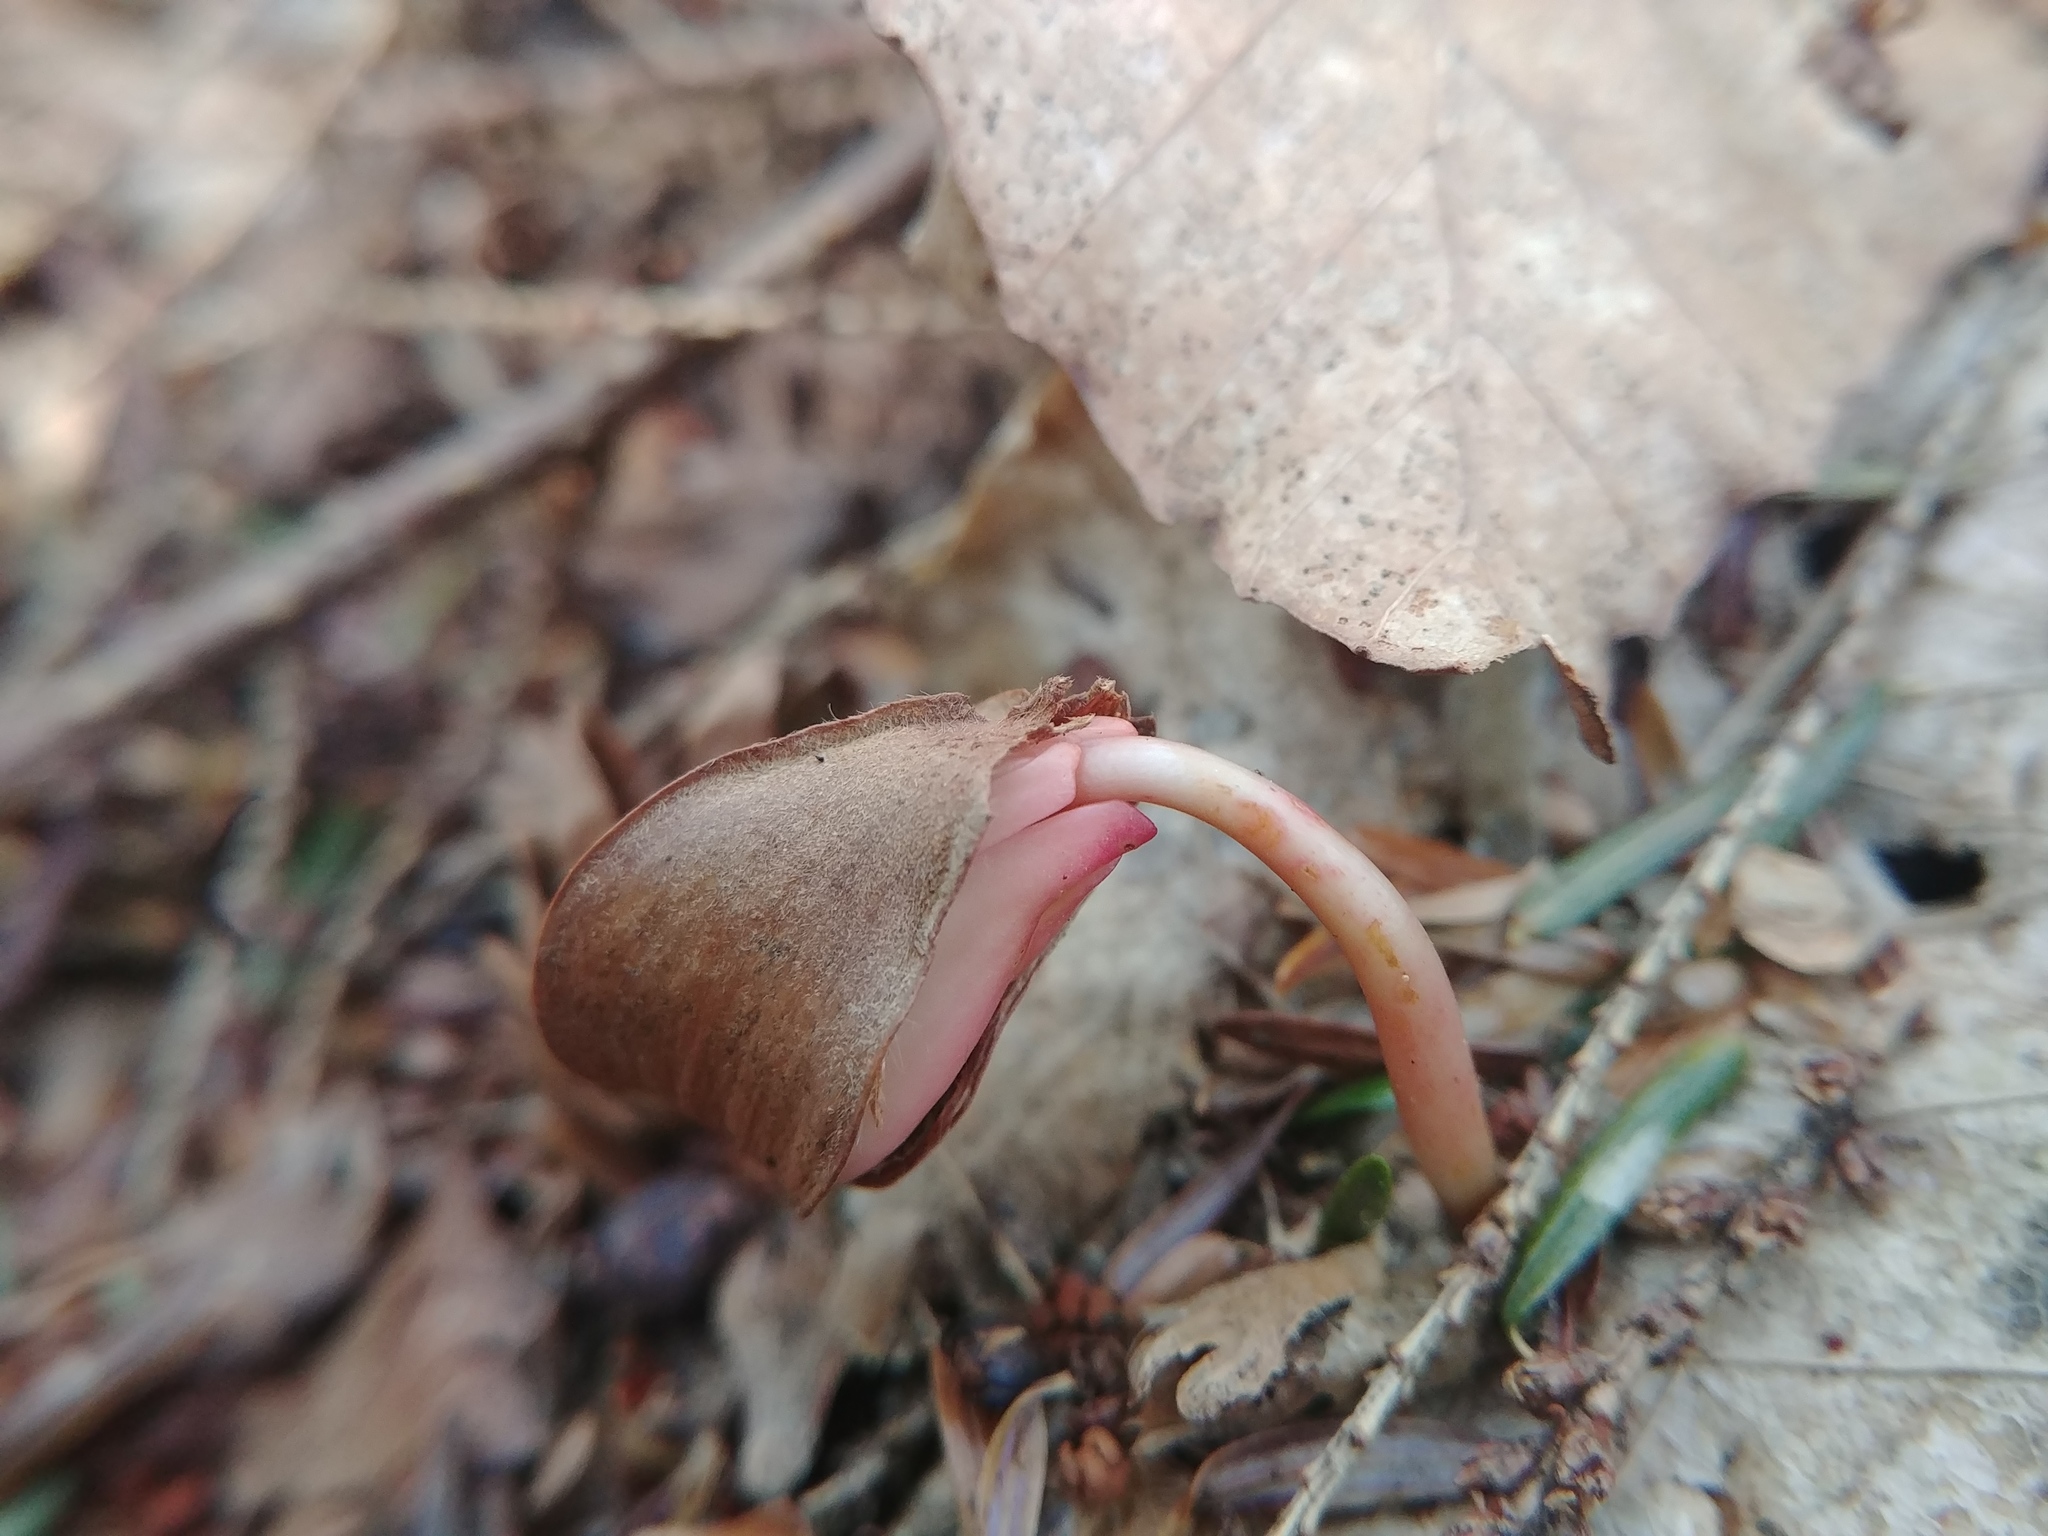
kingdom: Plantae
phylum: Tracheophyta
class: Magnoliopsida
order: Fagales
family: Fagaceae
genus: Fagus
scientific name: Fagus grandifolia
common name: American beech
